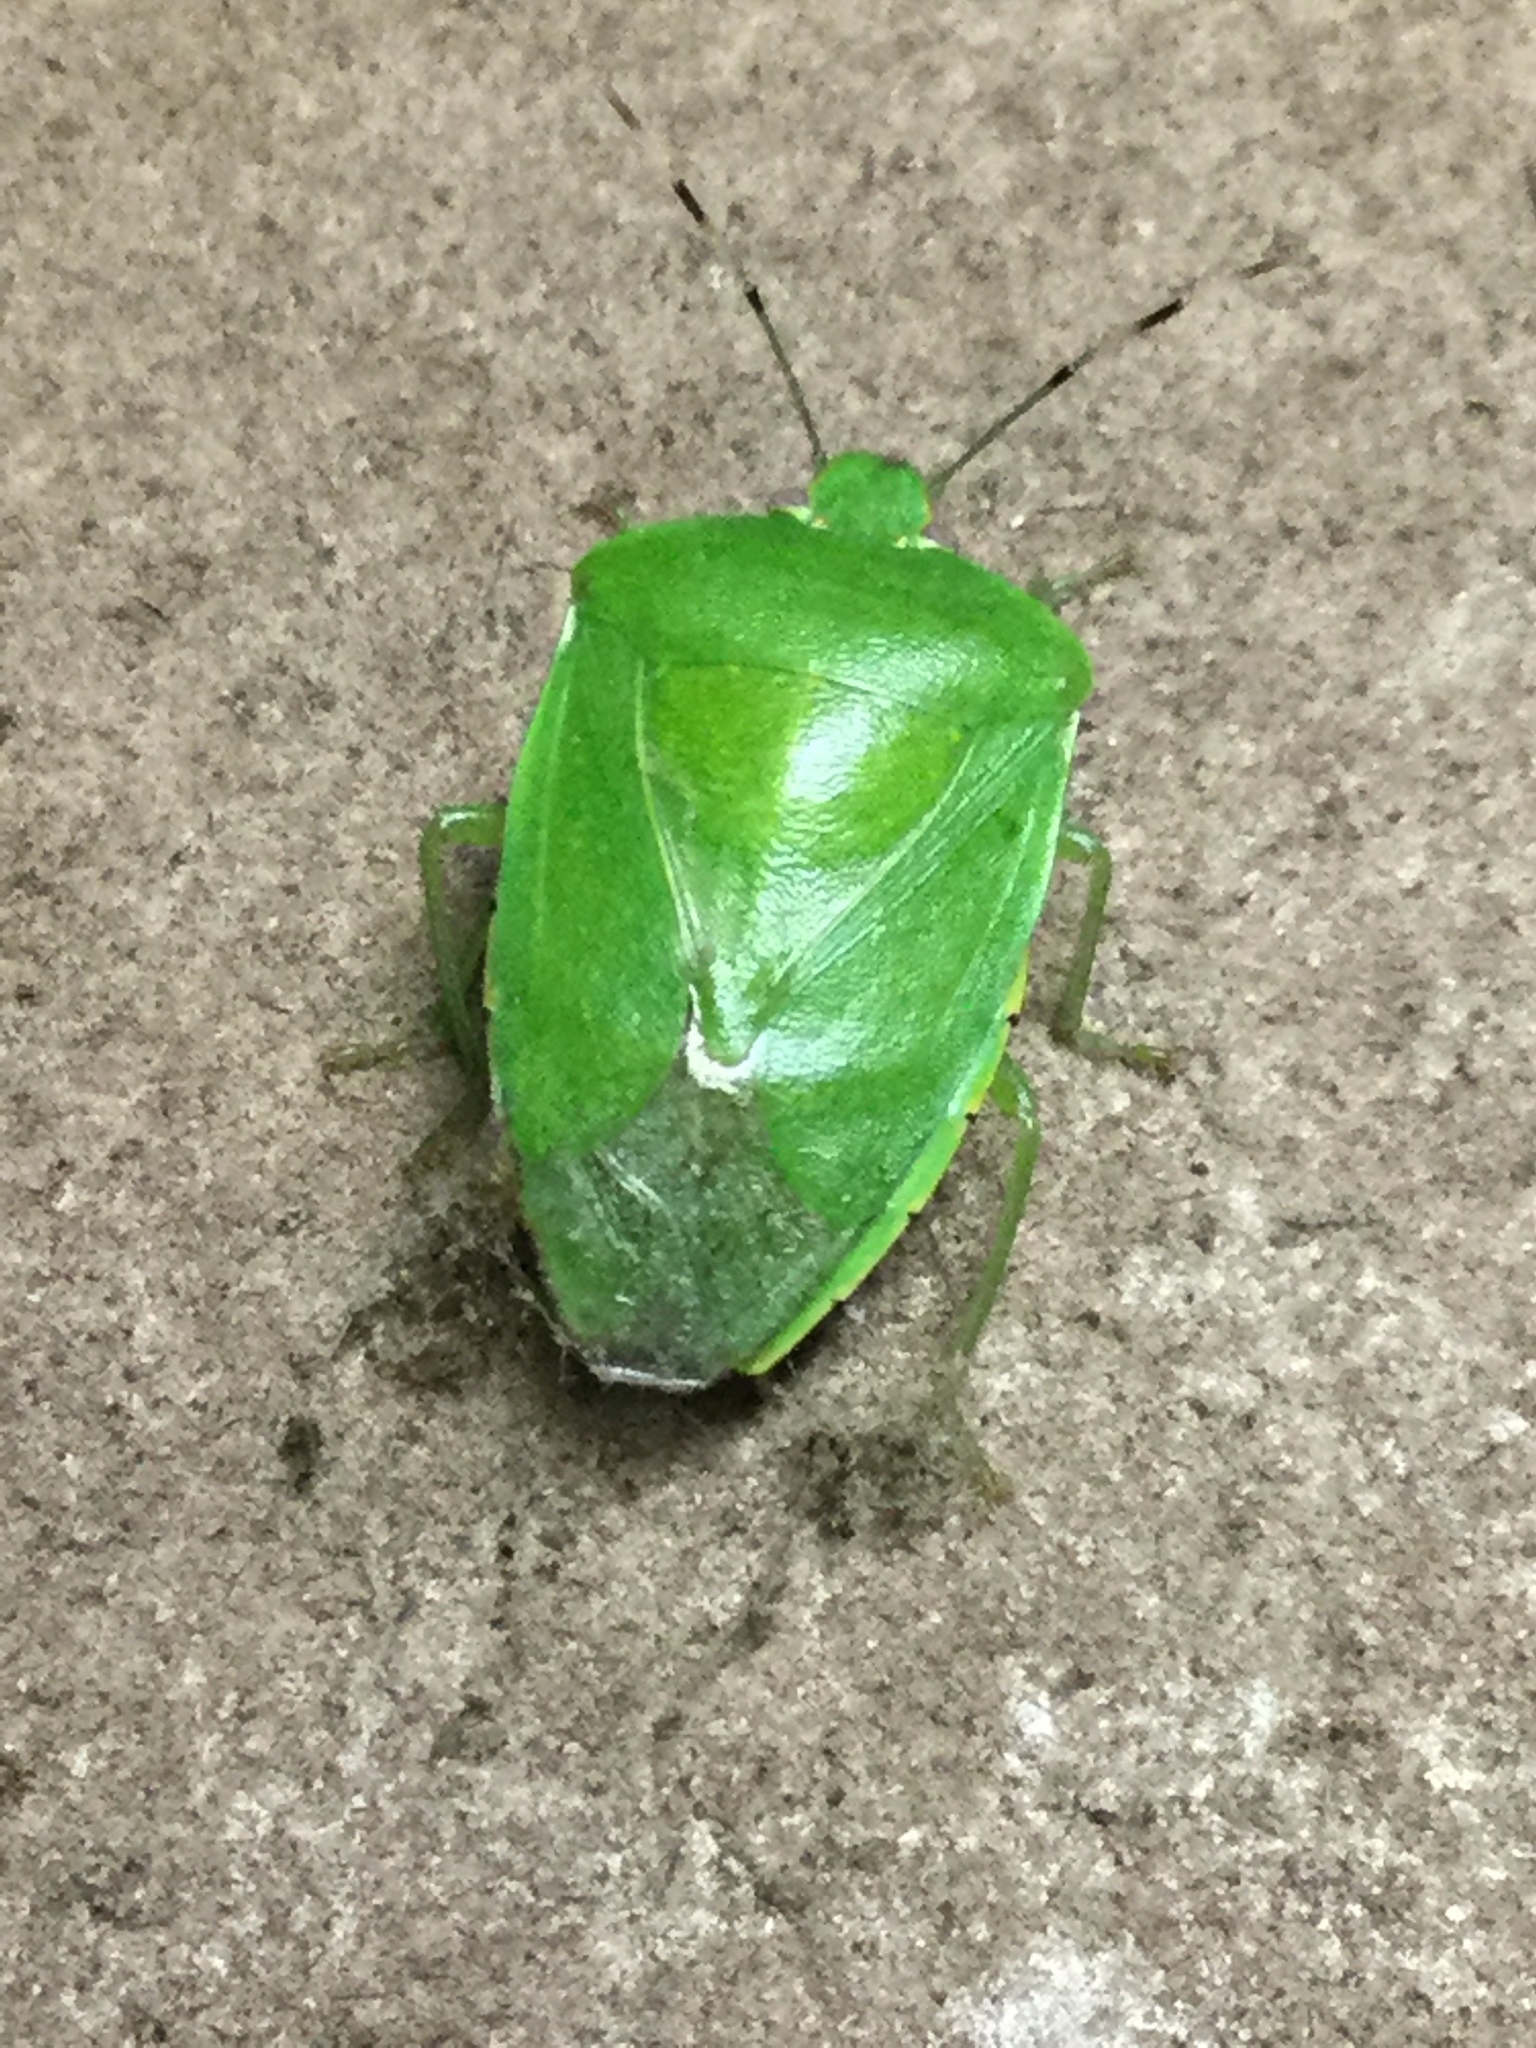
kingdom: Animalia
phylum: Arthropoda
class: Insecta
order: Hemiptera
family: Pentatomidae
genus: Chinavia
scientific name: Chinavia hilaris
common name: Green stink bug
